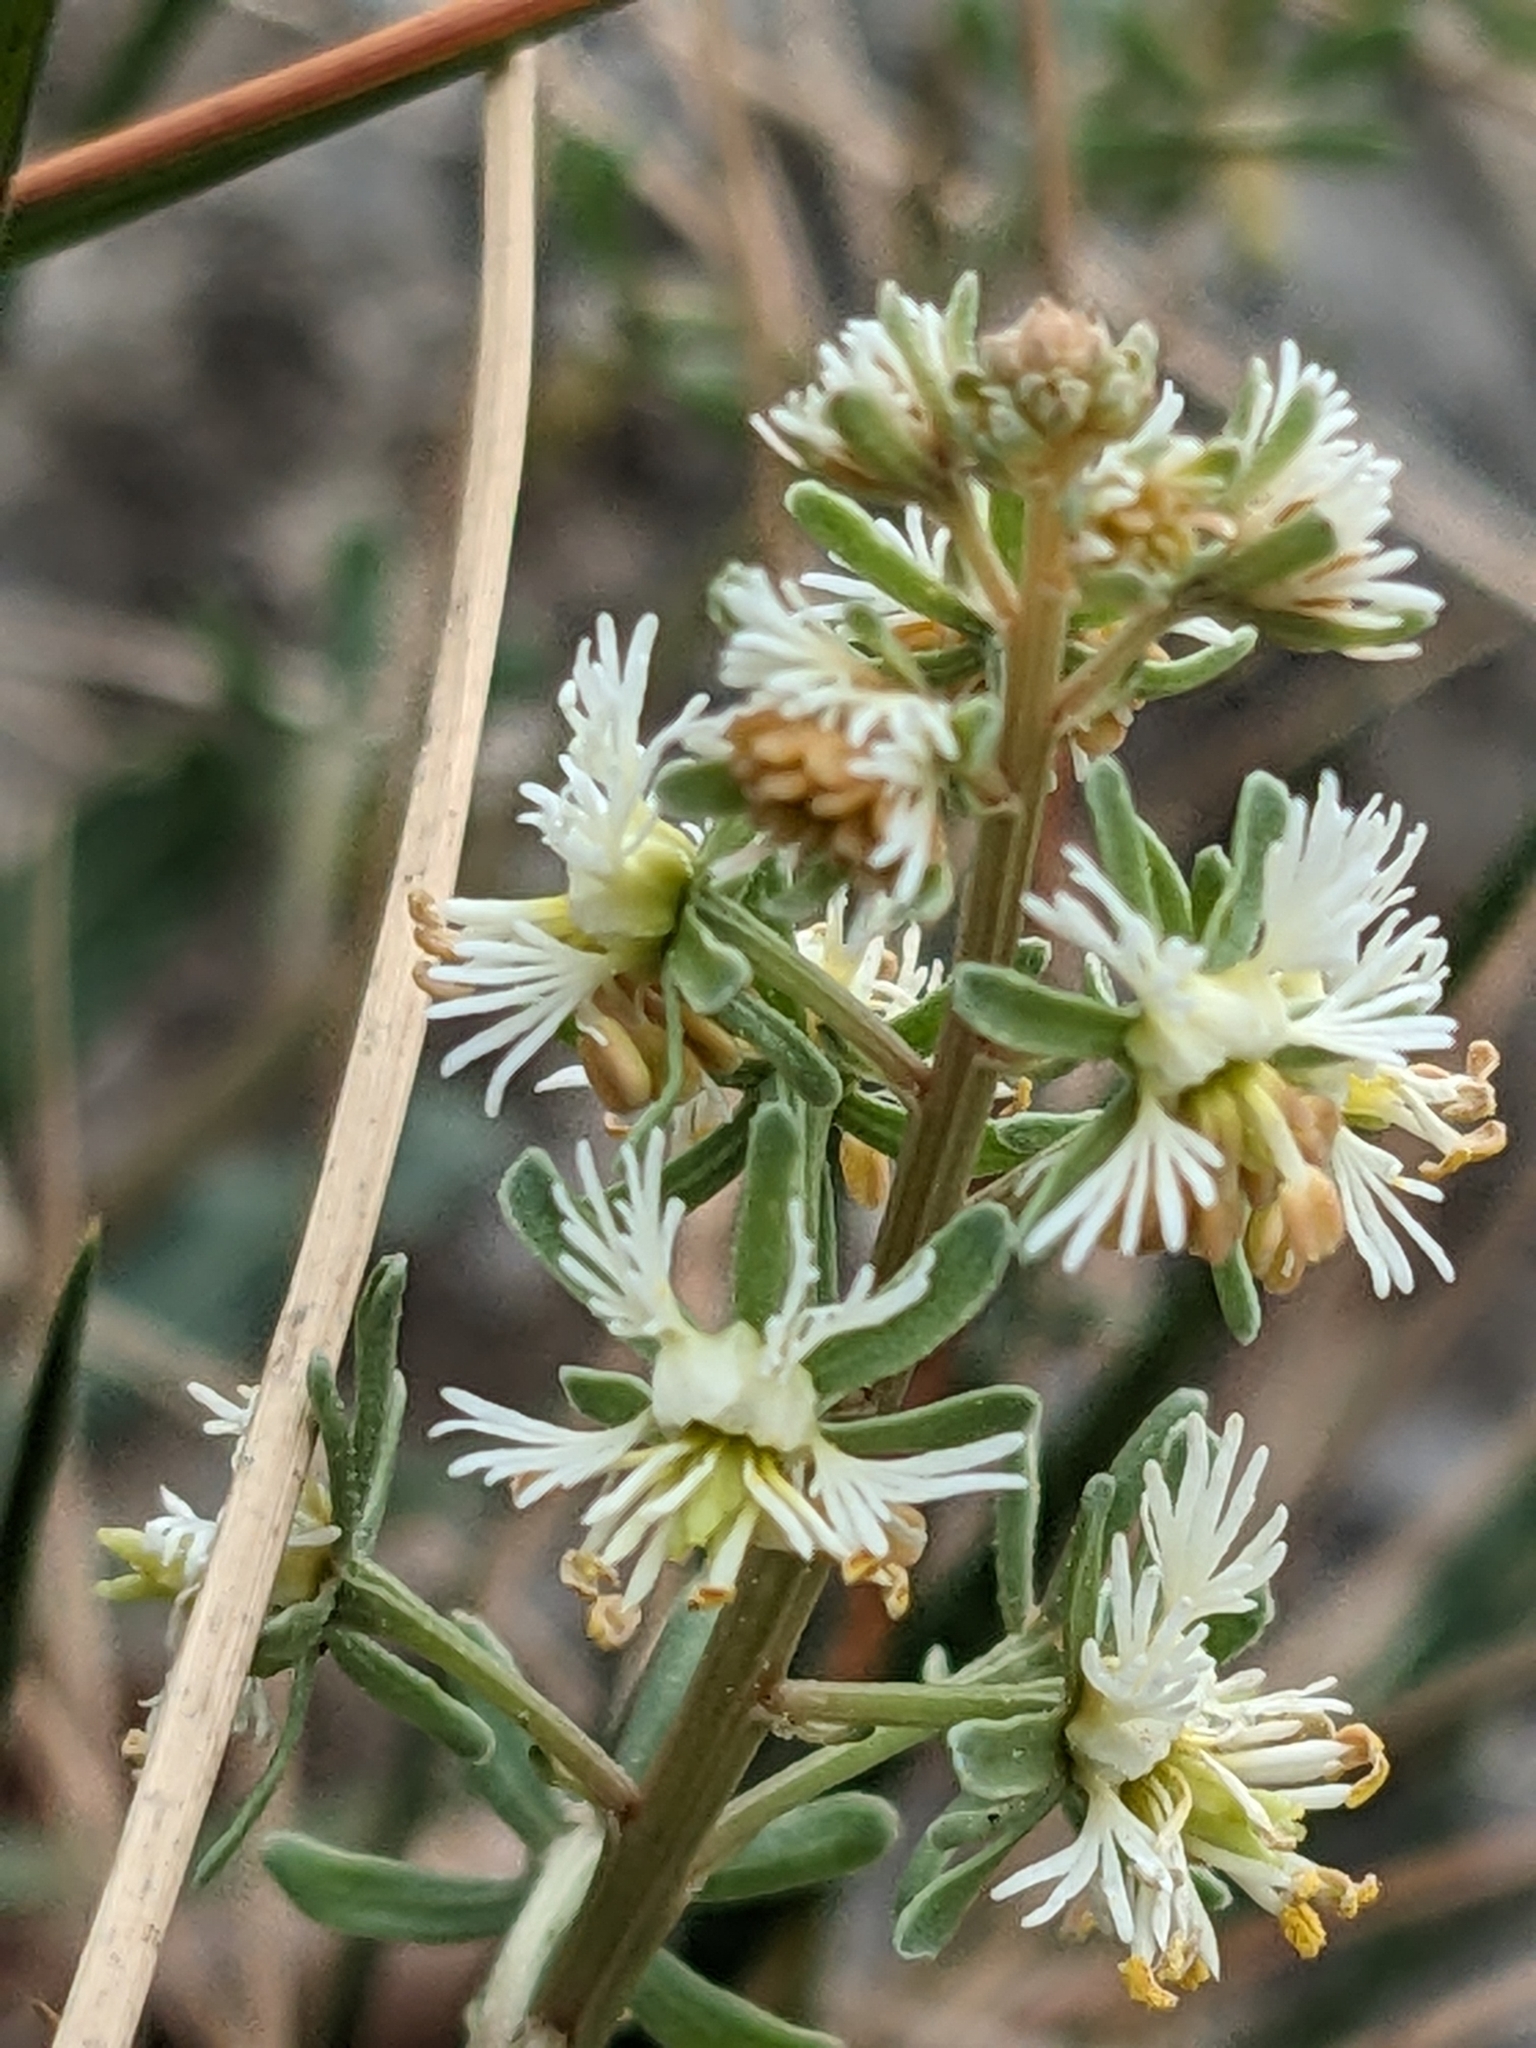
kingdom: Plantae
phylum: Tracheophyta
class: Magnoliopsida
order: Brassicales
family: Resedaceae
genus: Reseda
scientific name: Reseda phyteuma
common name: Corn mignonette
